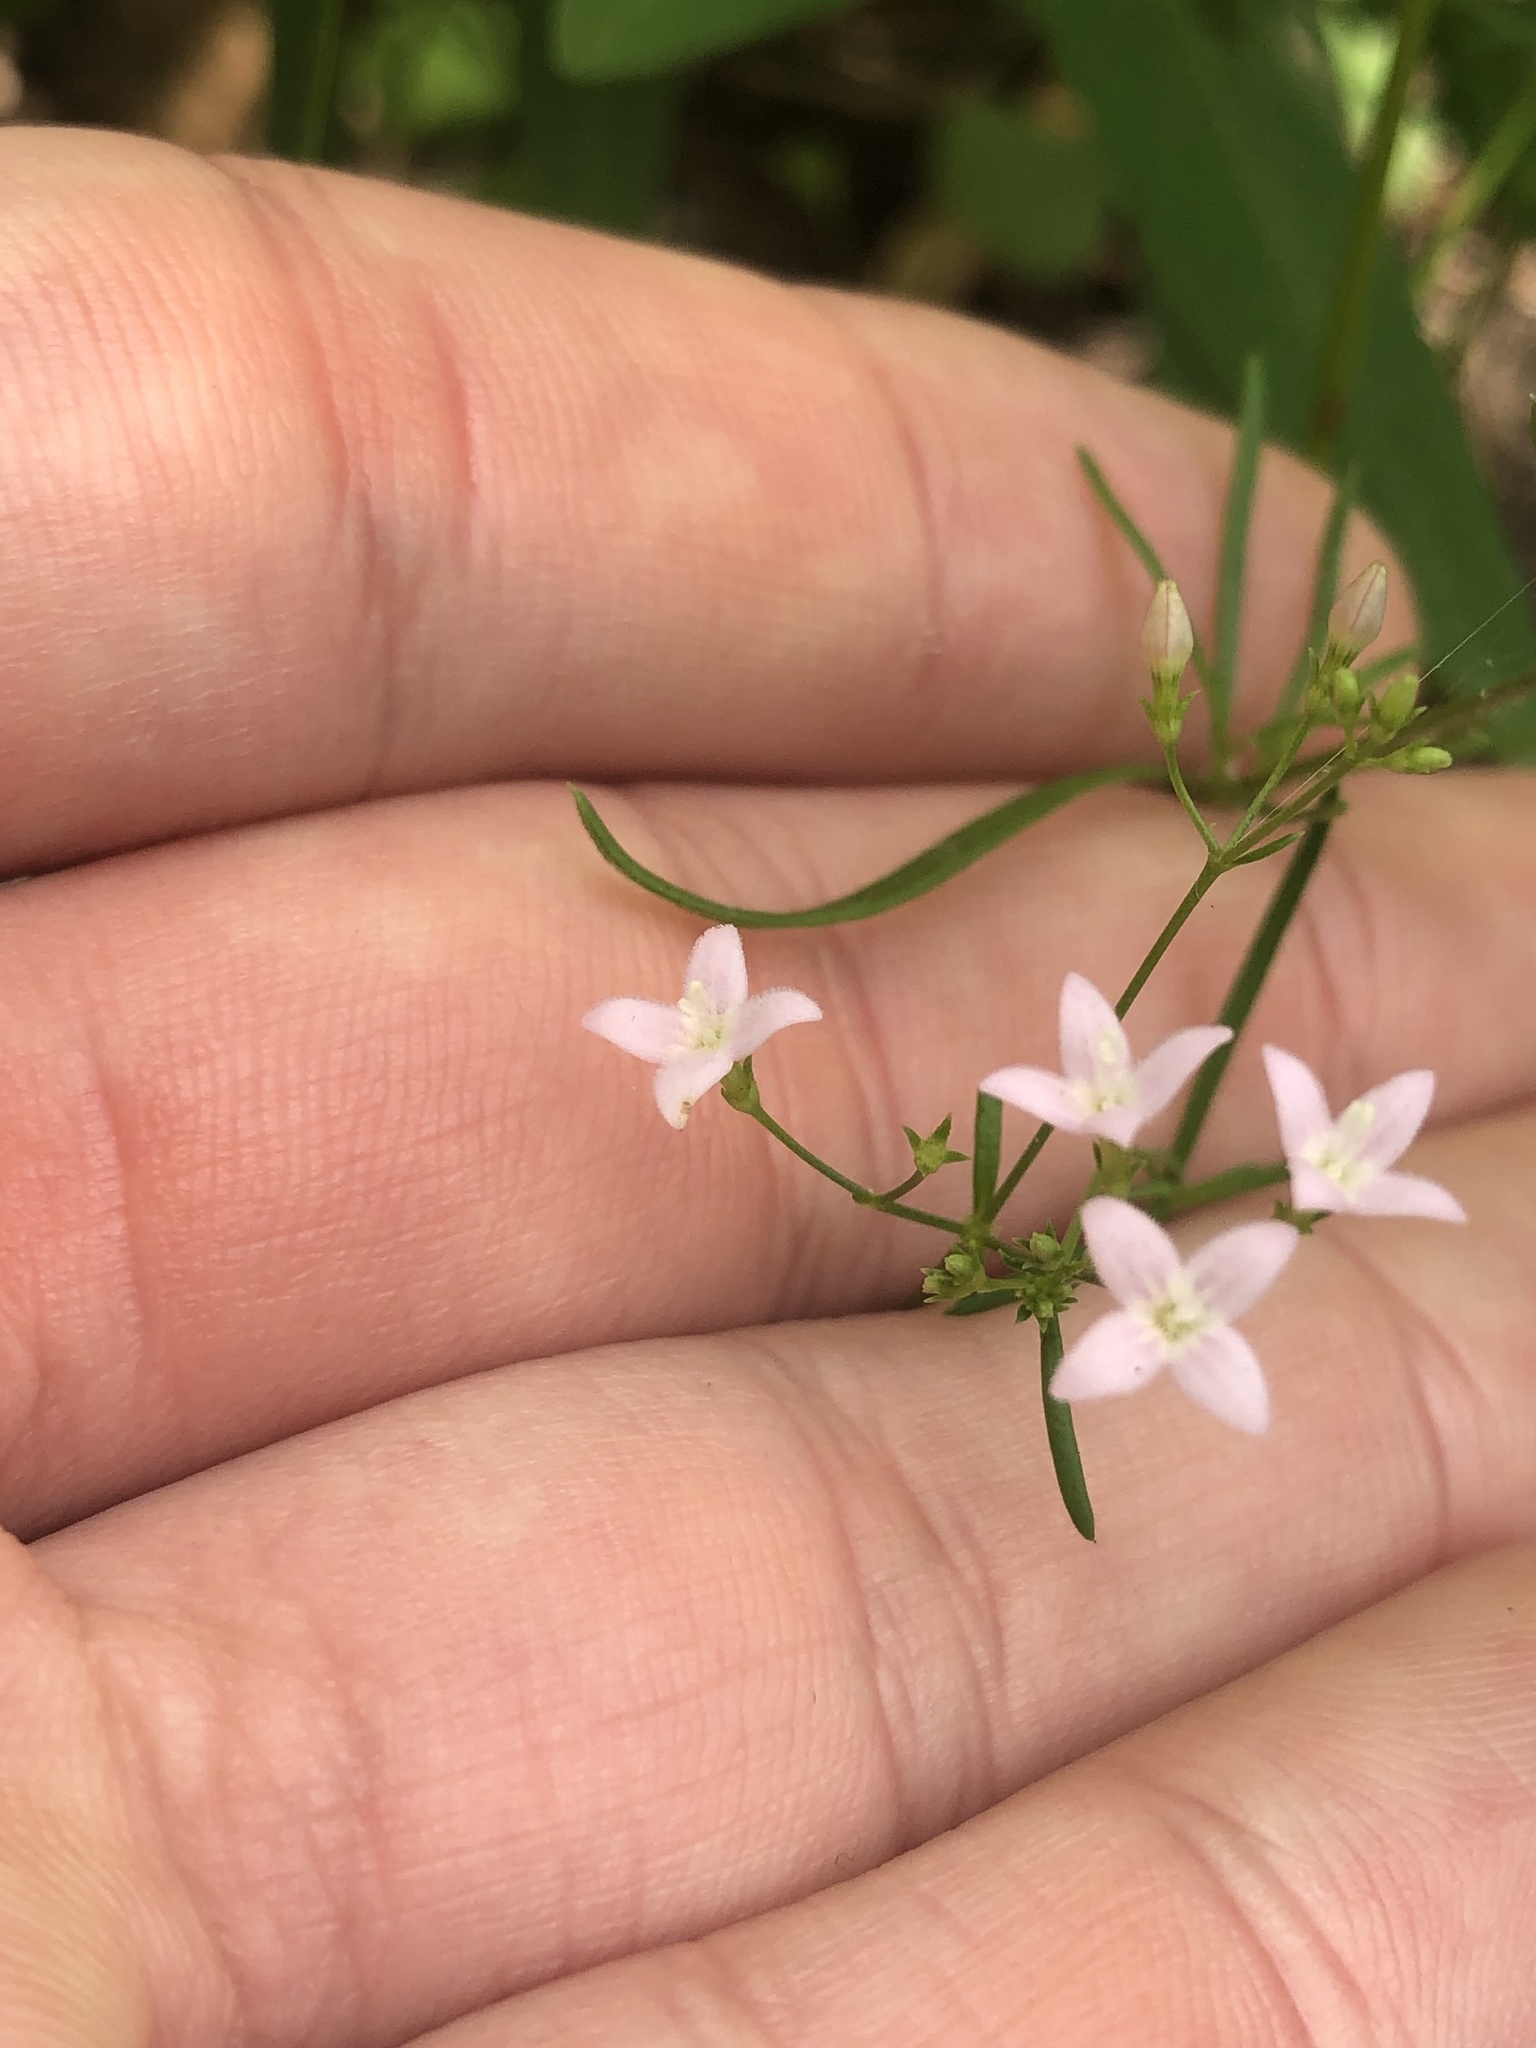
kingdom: Plantae
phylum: Tracheophyta
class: Magnoliopsida
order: Gentianales
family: Rubiaceae
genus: Stenaria
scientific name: Stenaria nigricans
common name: Diamondflowers
